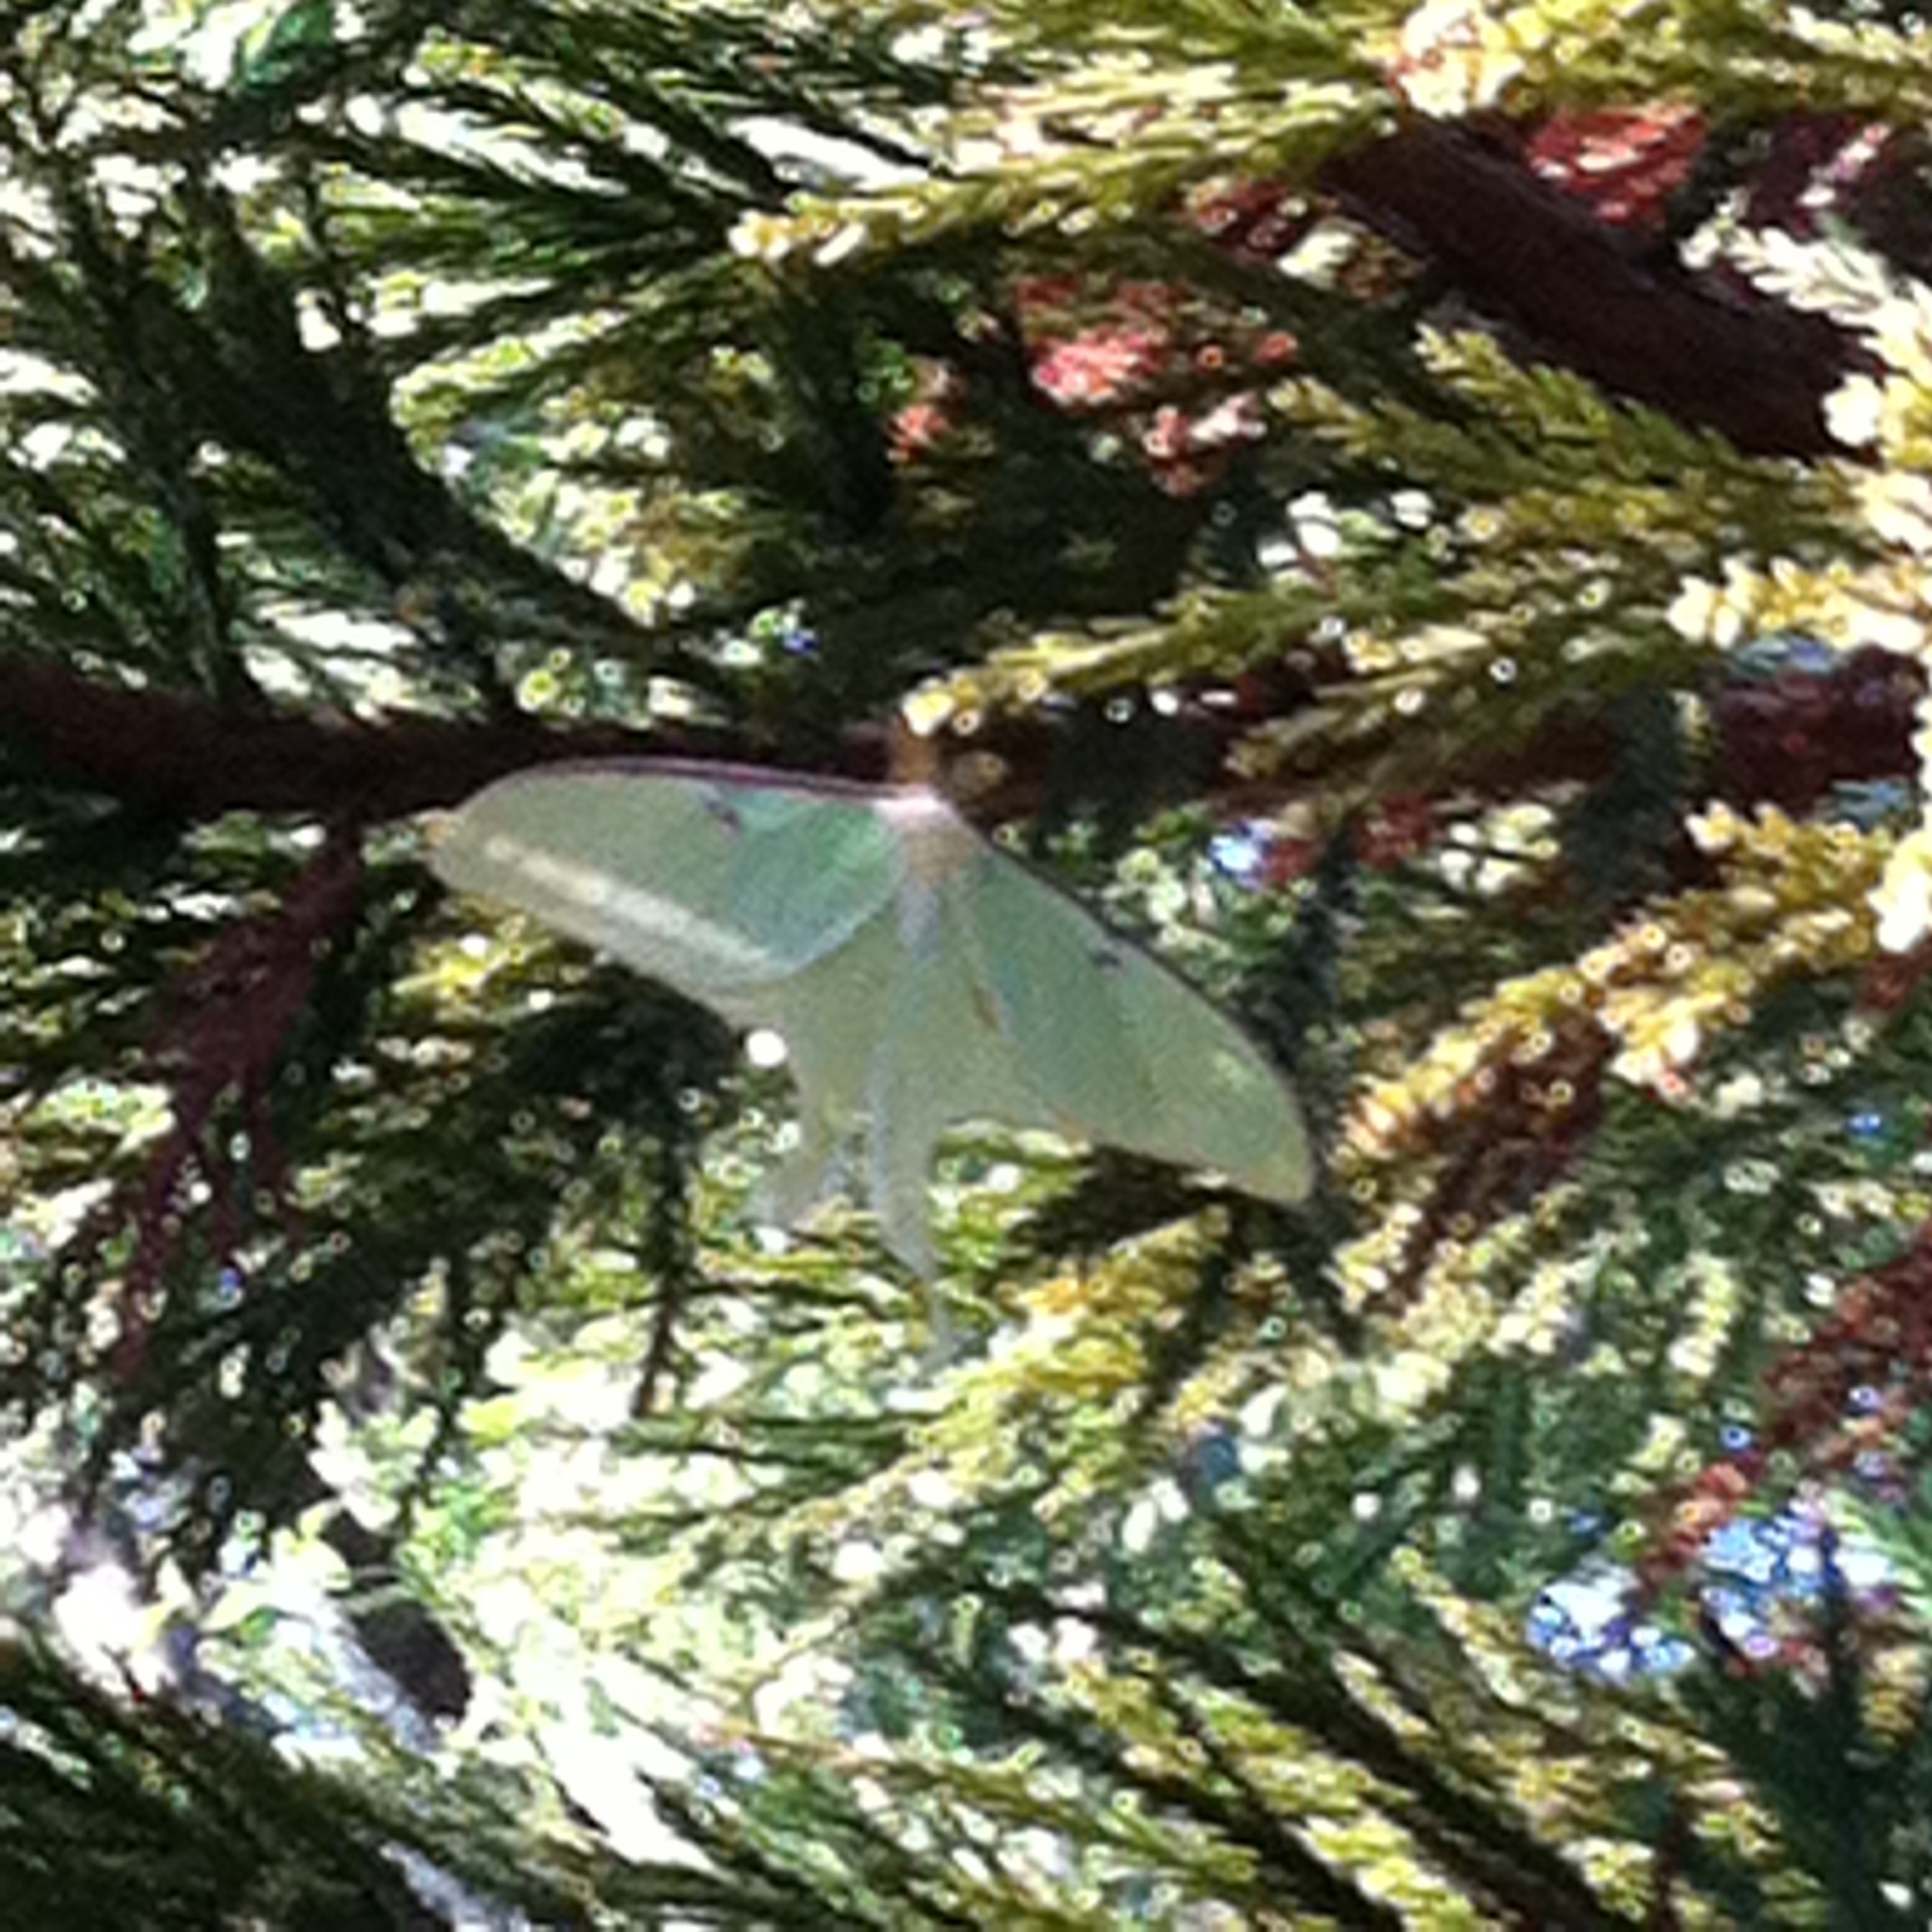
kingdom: Animalia
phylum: Arthropoda
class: Insecta
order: Lepidoptera
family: Saturniidae
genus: Actias
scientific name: Actias luna
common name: Luna moth
